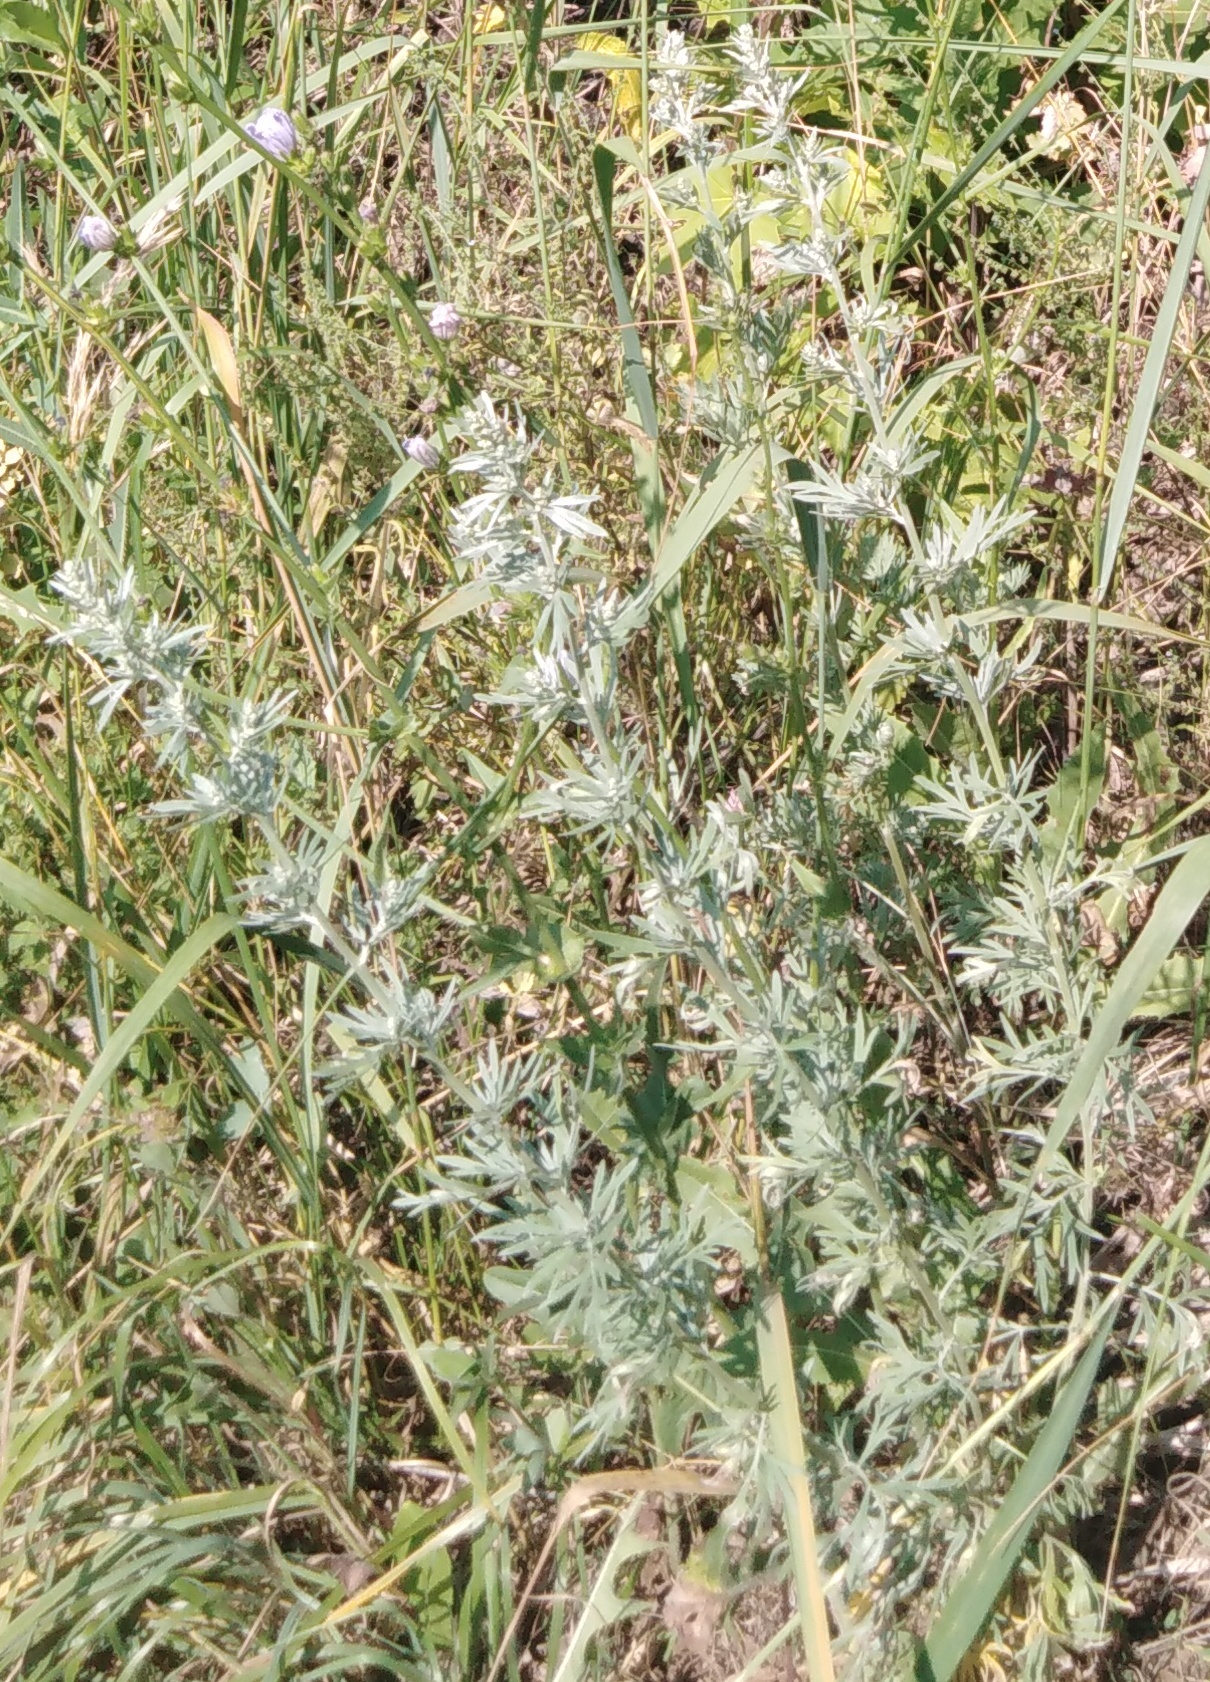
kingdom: Plantae
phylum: Tracheophyta
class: Magnoliopsida
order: Asterales
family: Asteraceae
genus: Artemisia
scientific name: Artemisia absinthium
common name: Wormwood
